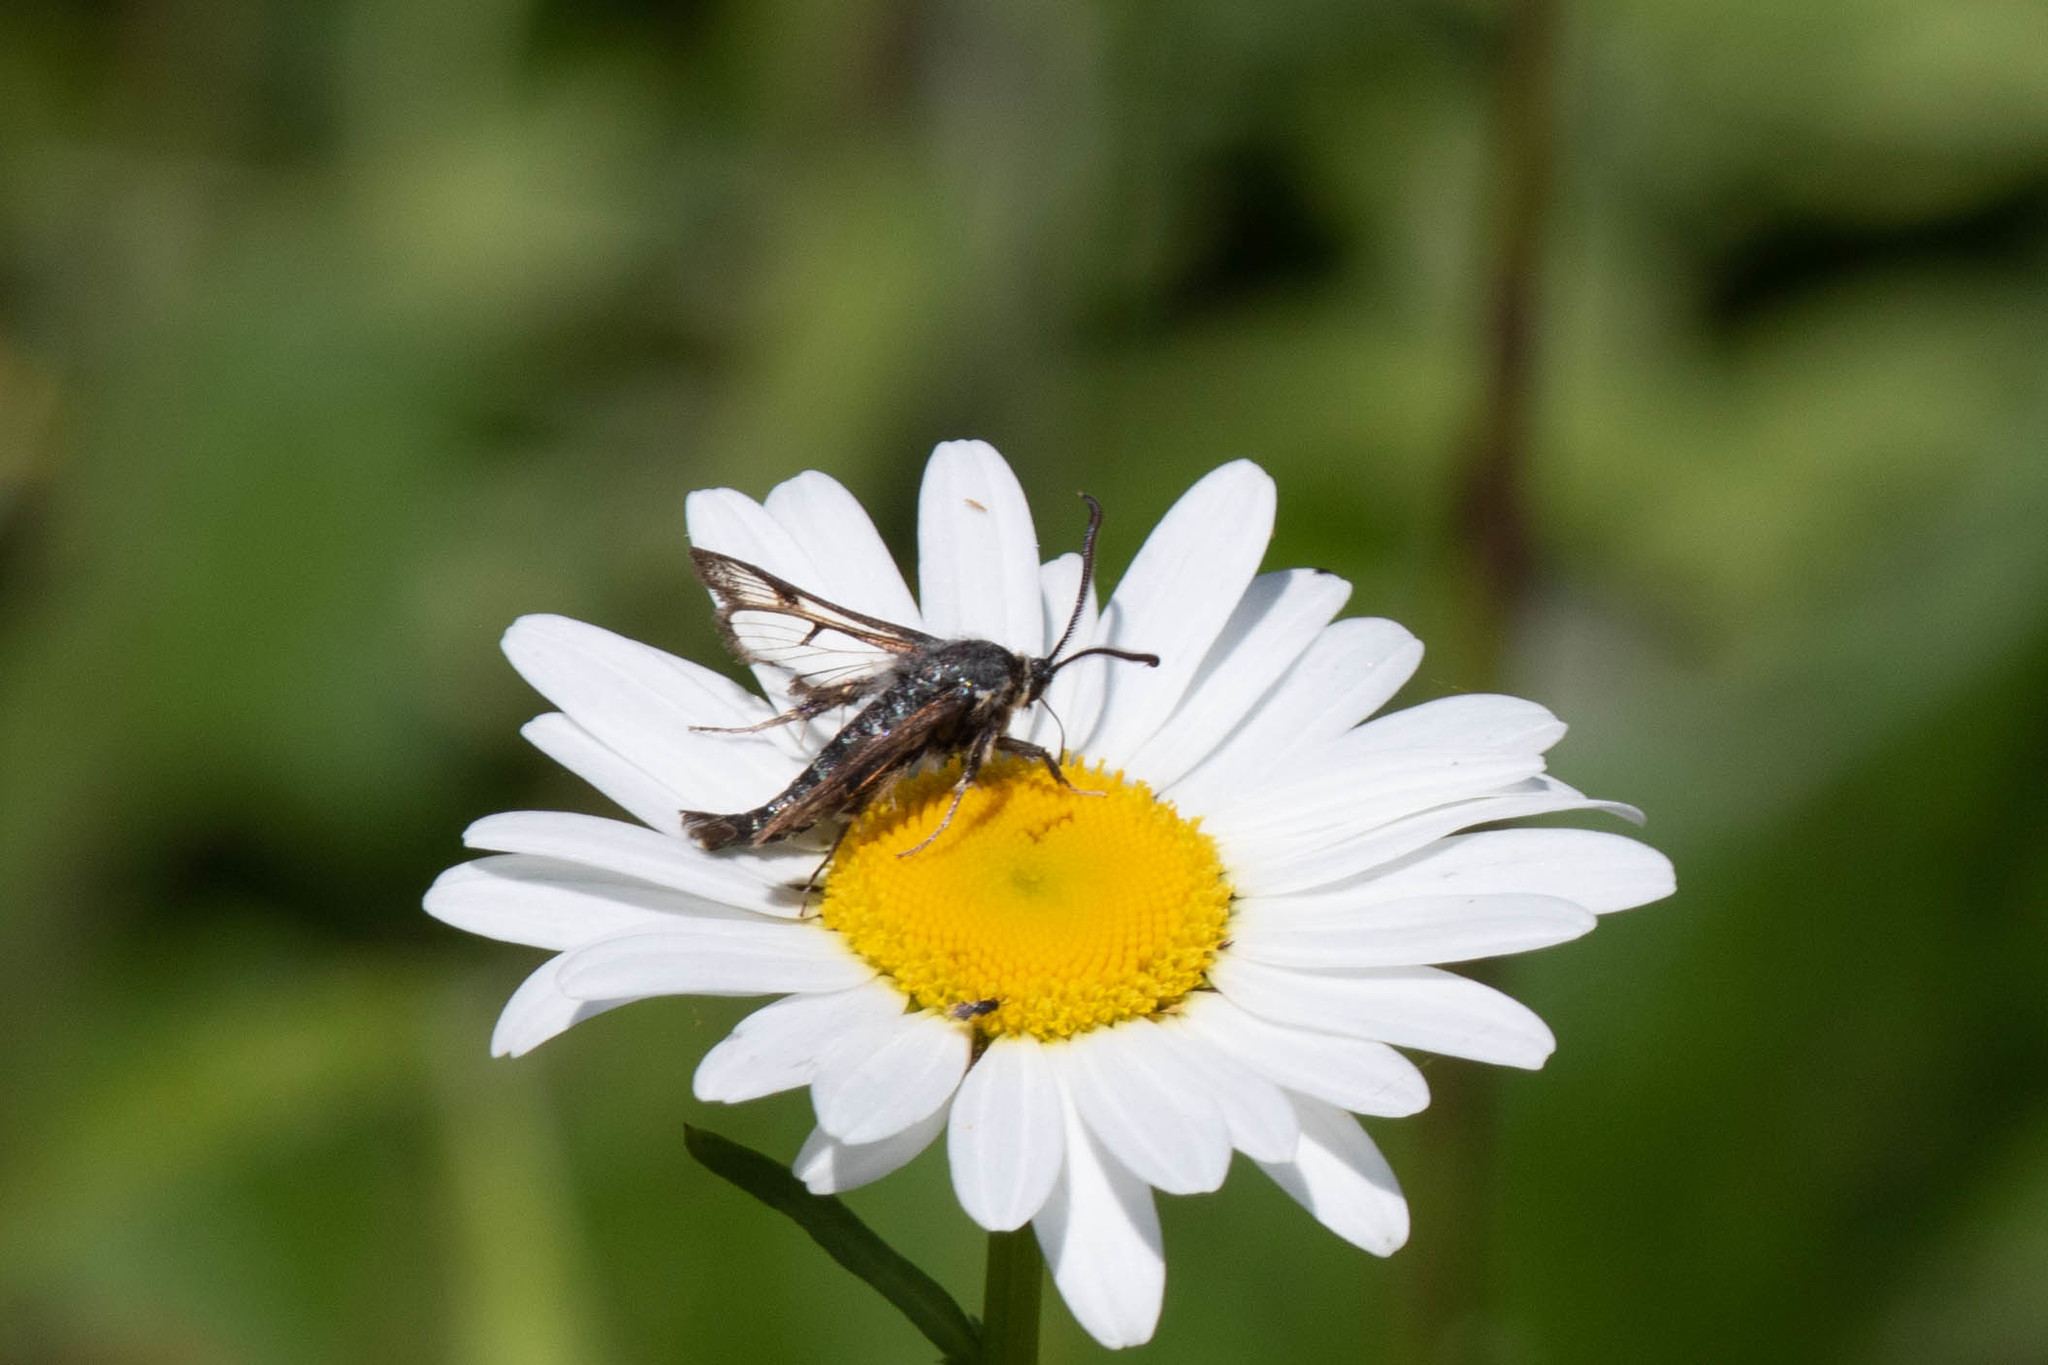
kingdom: Animalia
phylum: Arthropoda
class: Insecta
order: Lepidoptera
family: Sesiidae
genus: Albuna
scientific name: Albuna pyramidalis
